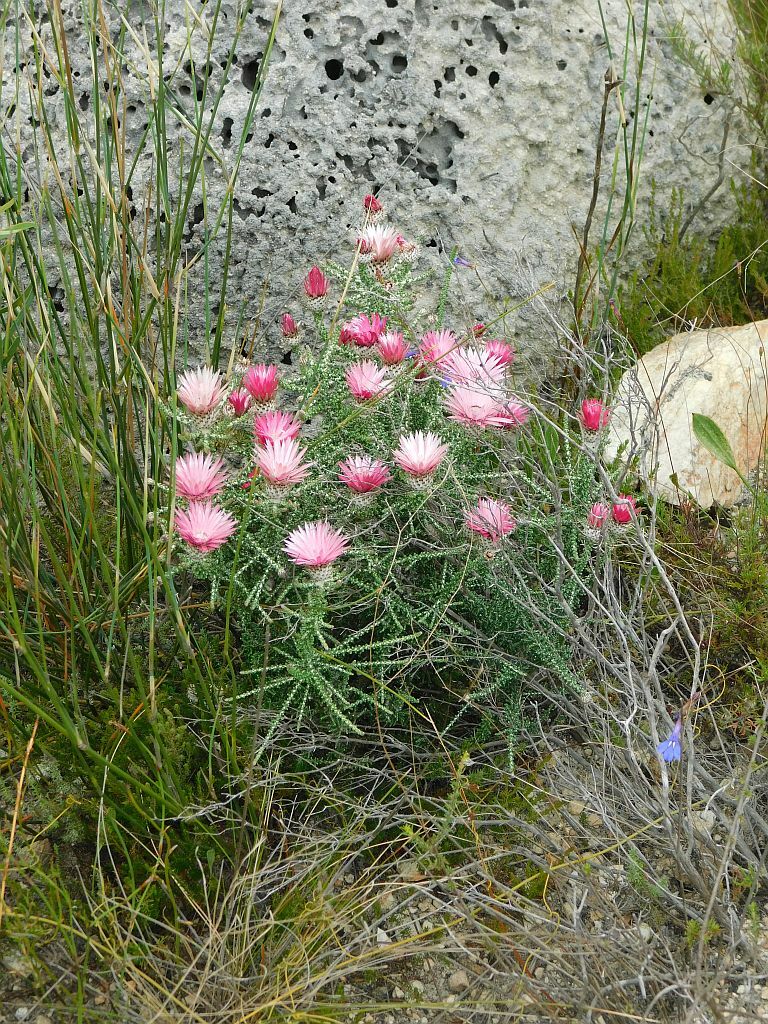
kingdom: Plantae
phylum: Tracheophyta
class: Magnoliopsida
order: Asterales
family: Asteraceae
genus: Phaenocoma
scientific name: Phaenocoma prolifera
